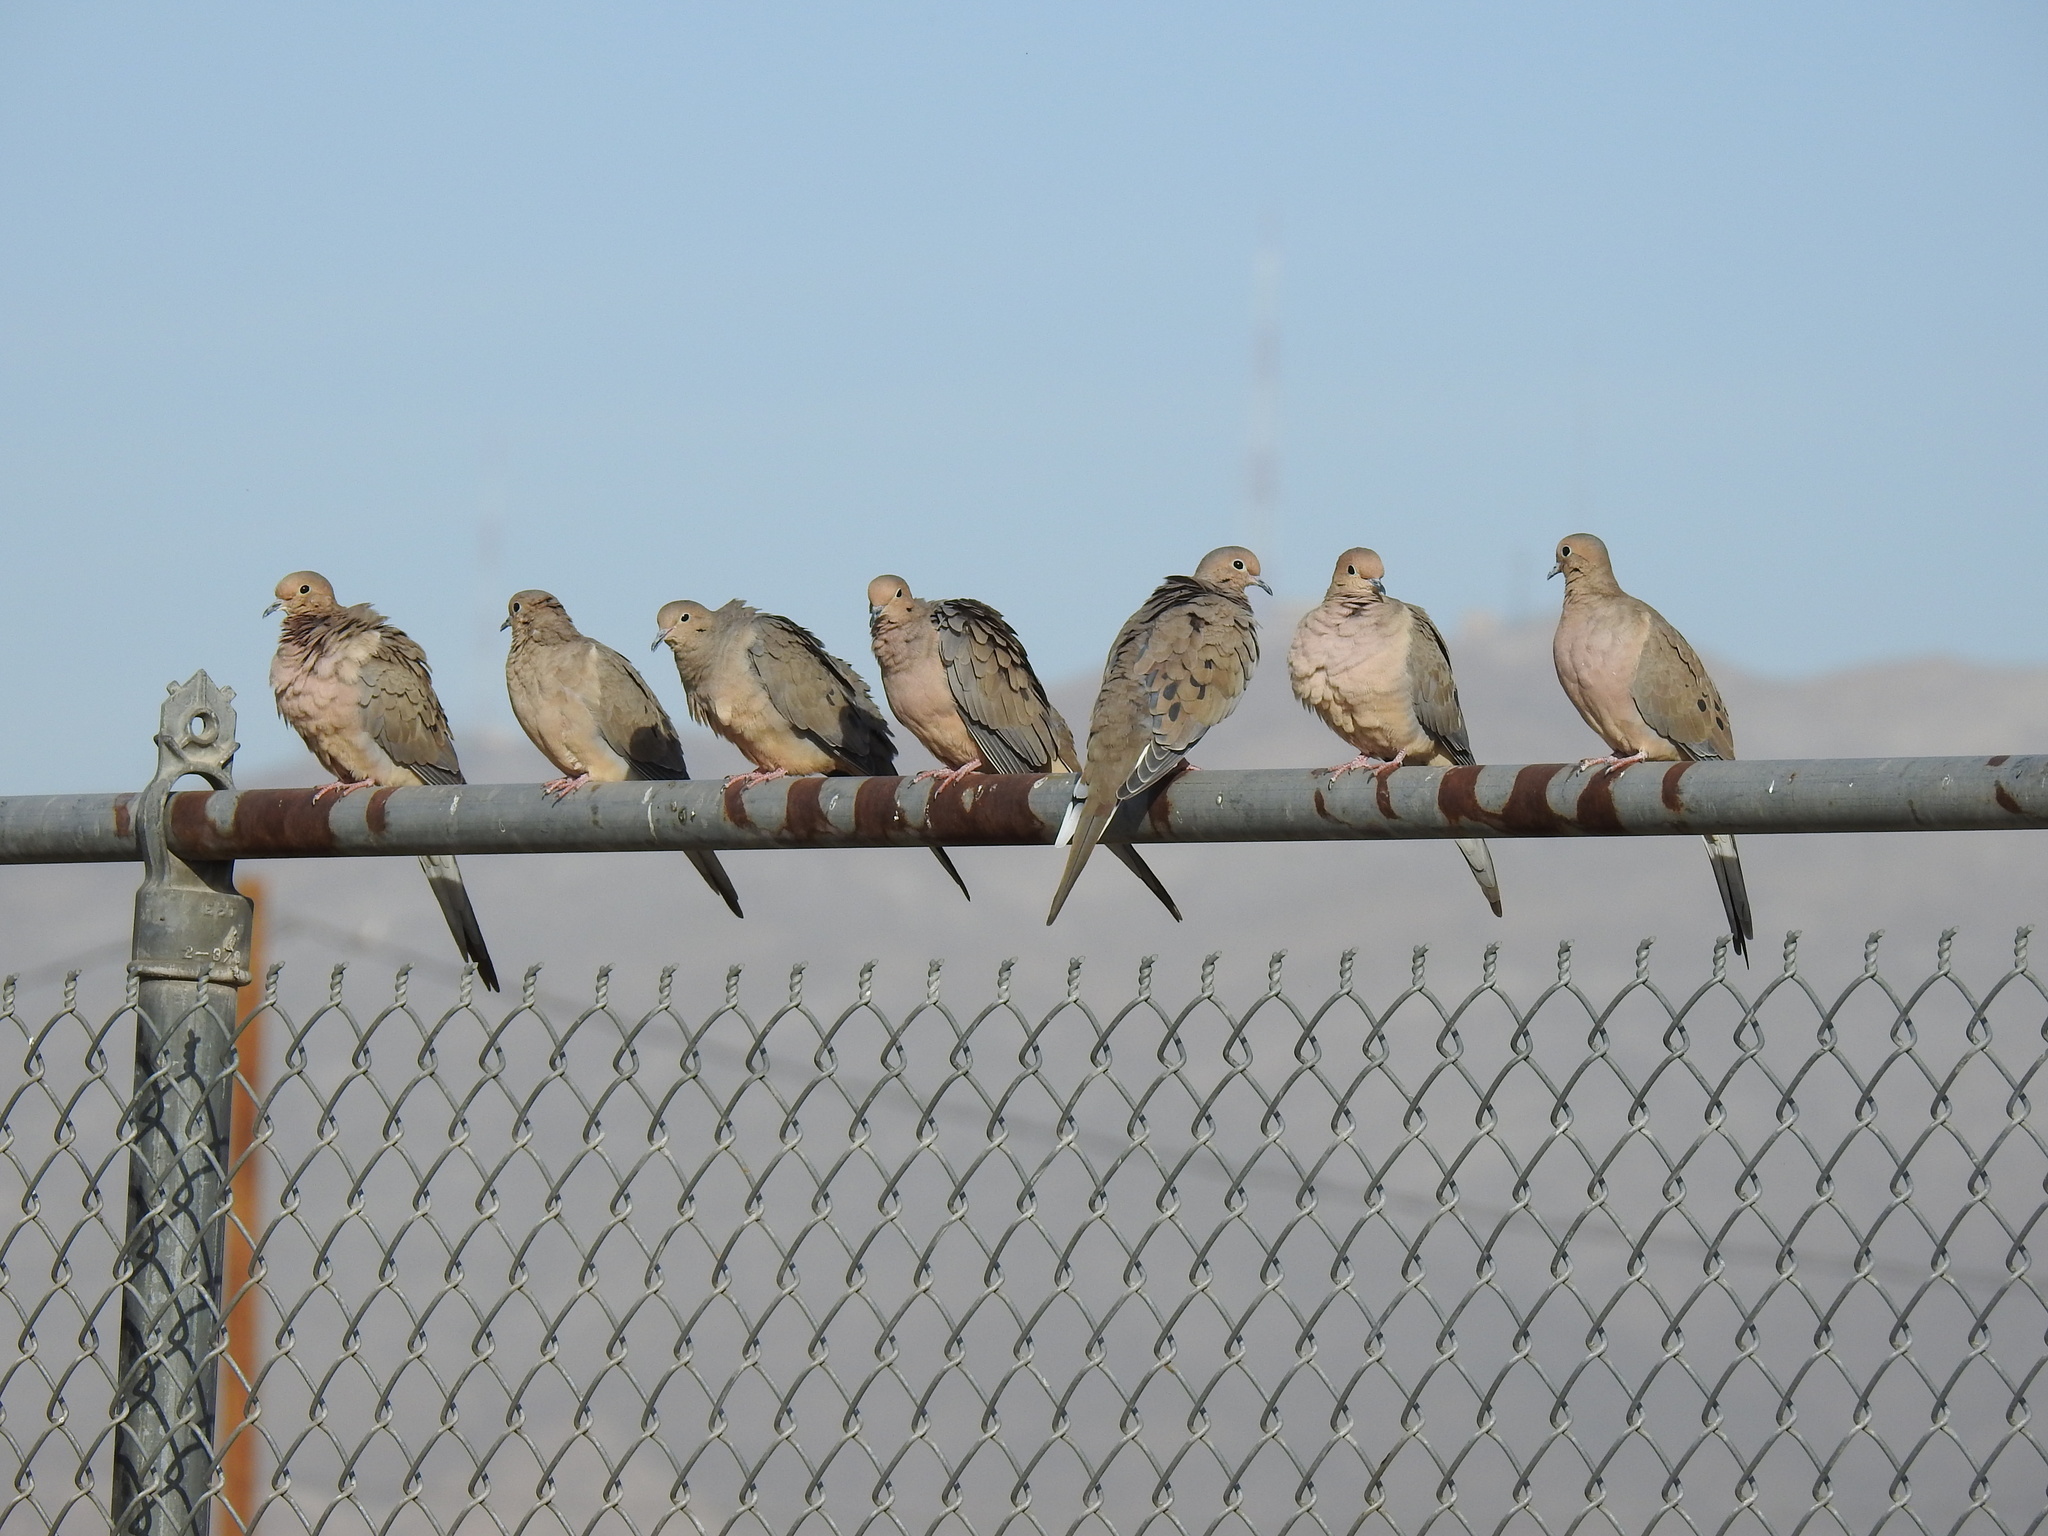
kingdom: Animalia
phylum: Chordata
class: Aves
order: Columbiformes
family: Columbidae
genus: Zenaida
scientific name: Zenaida macroura
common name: Mourning dove
